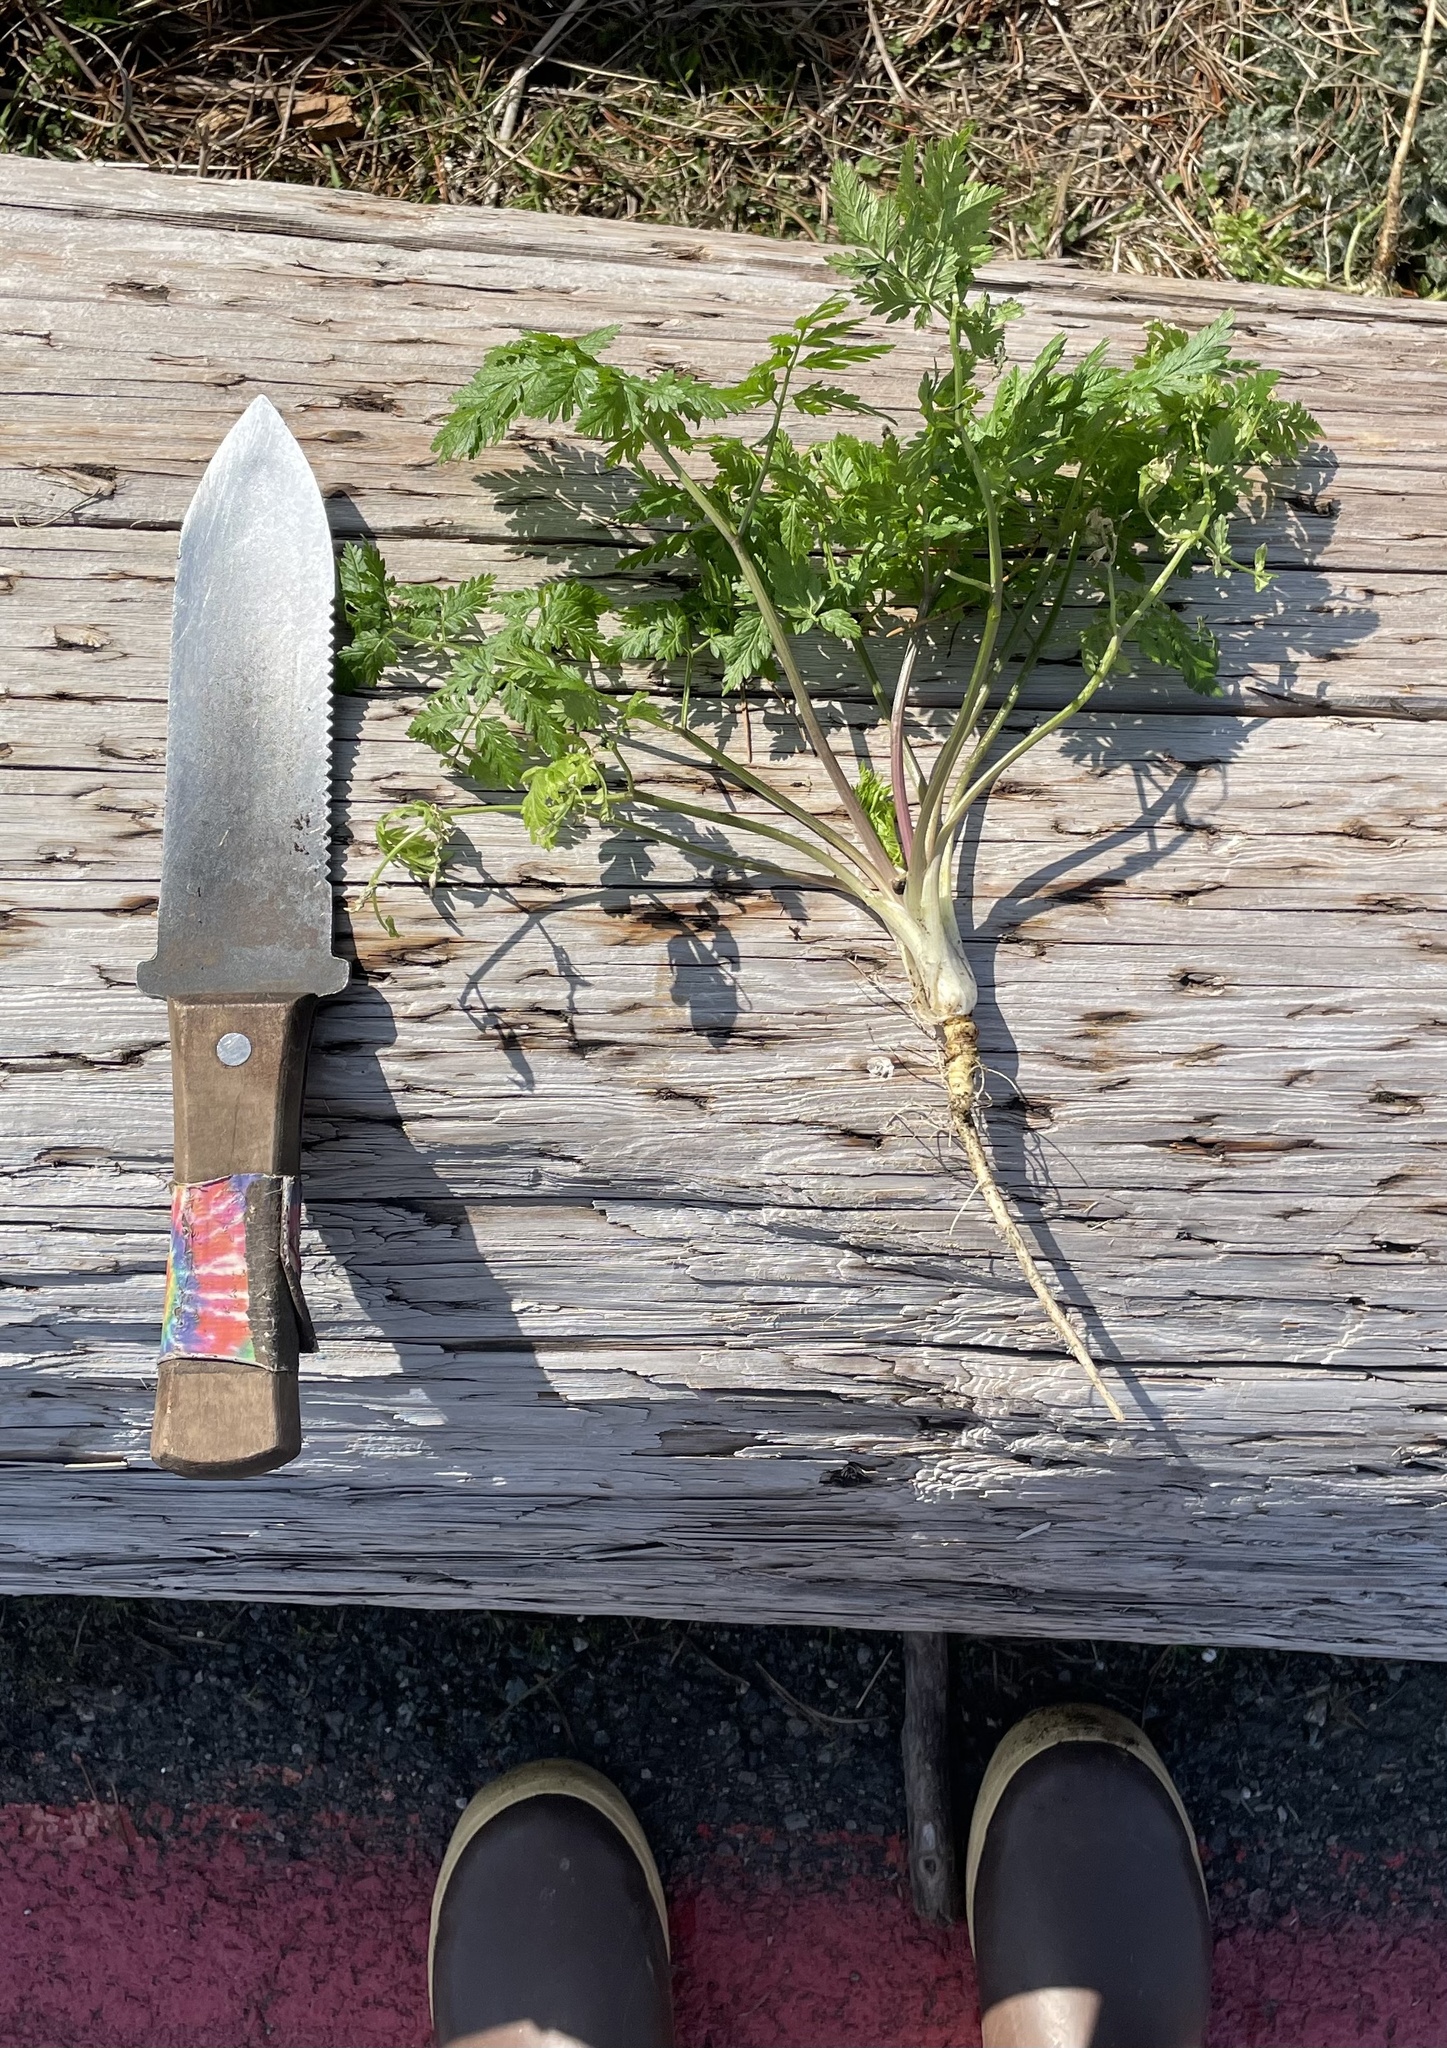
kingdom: Plantae
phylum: Tracheophyta
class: Magnoliopsida
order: Apiales
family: Apiaceae
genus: Conium
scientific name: Conium maculatum
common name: Hemlock
